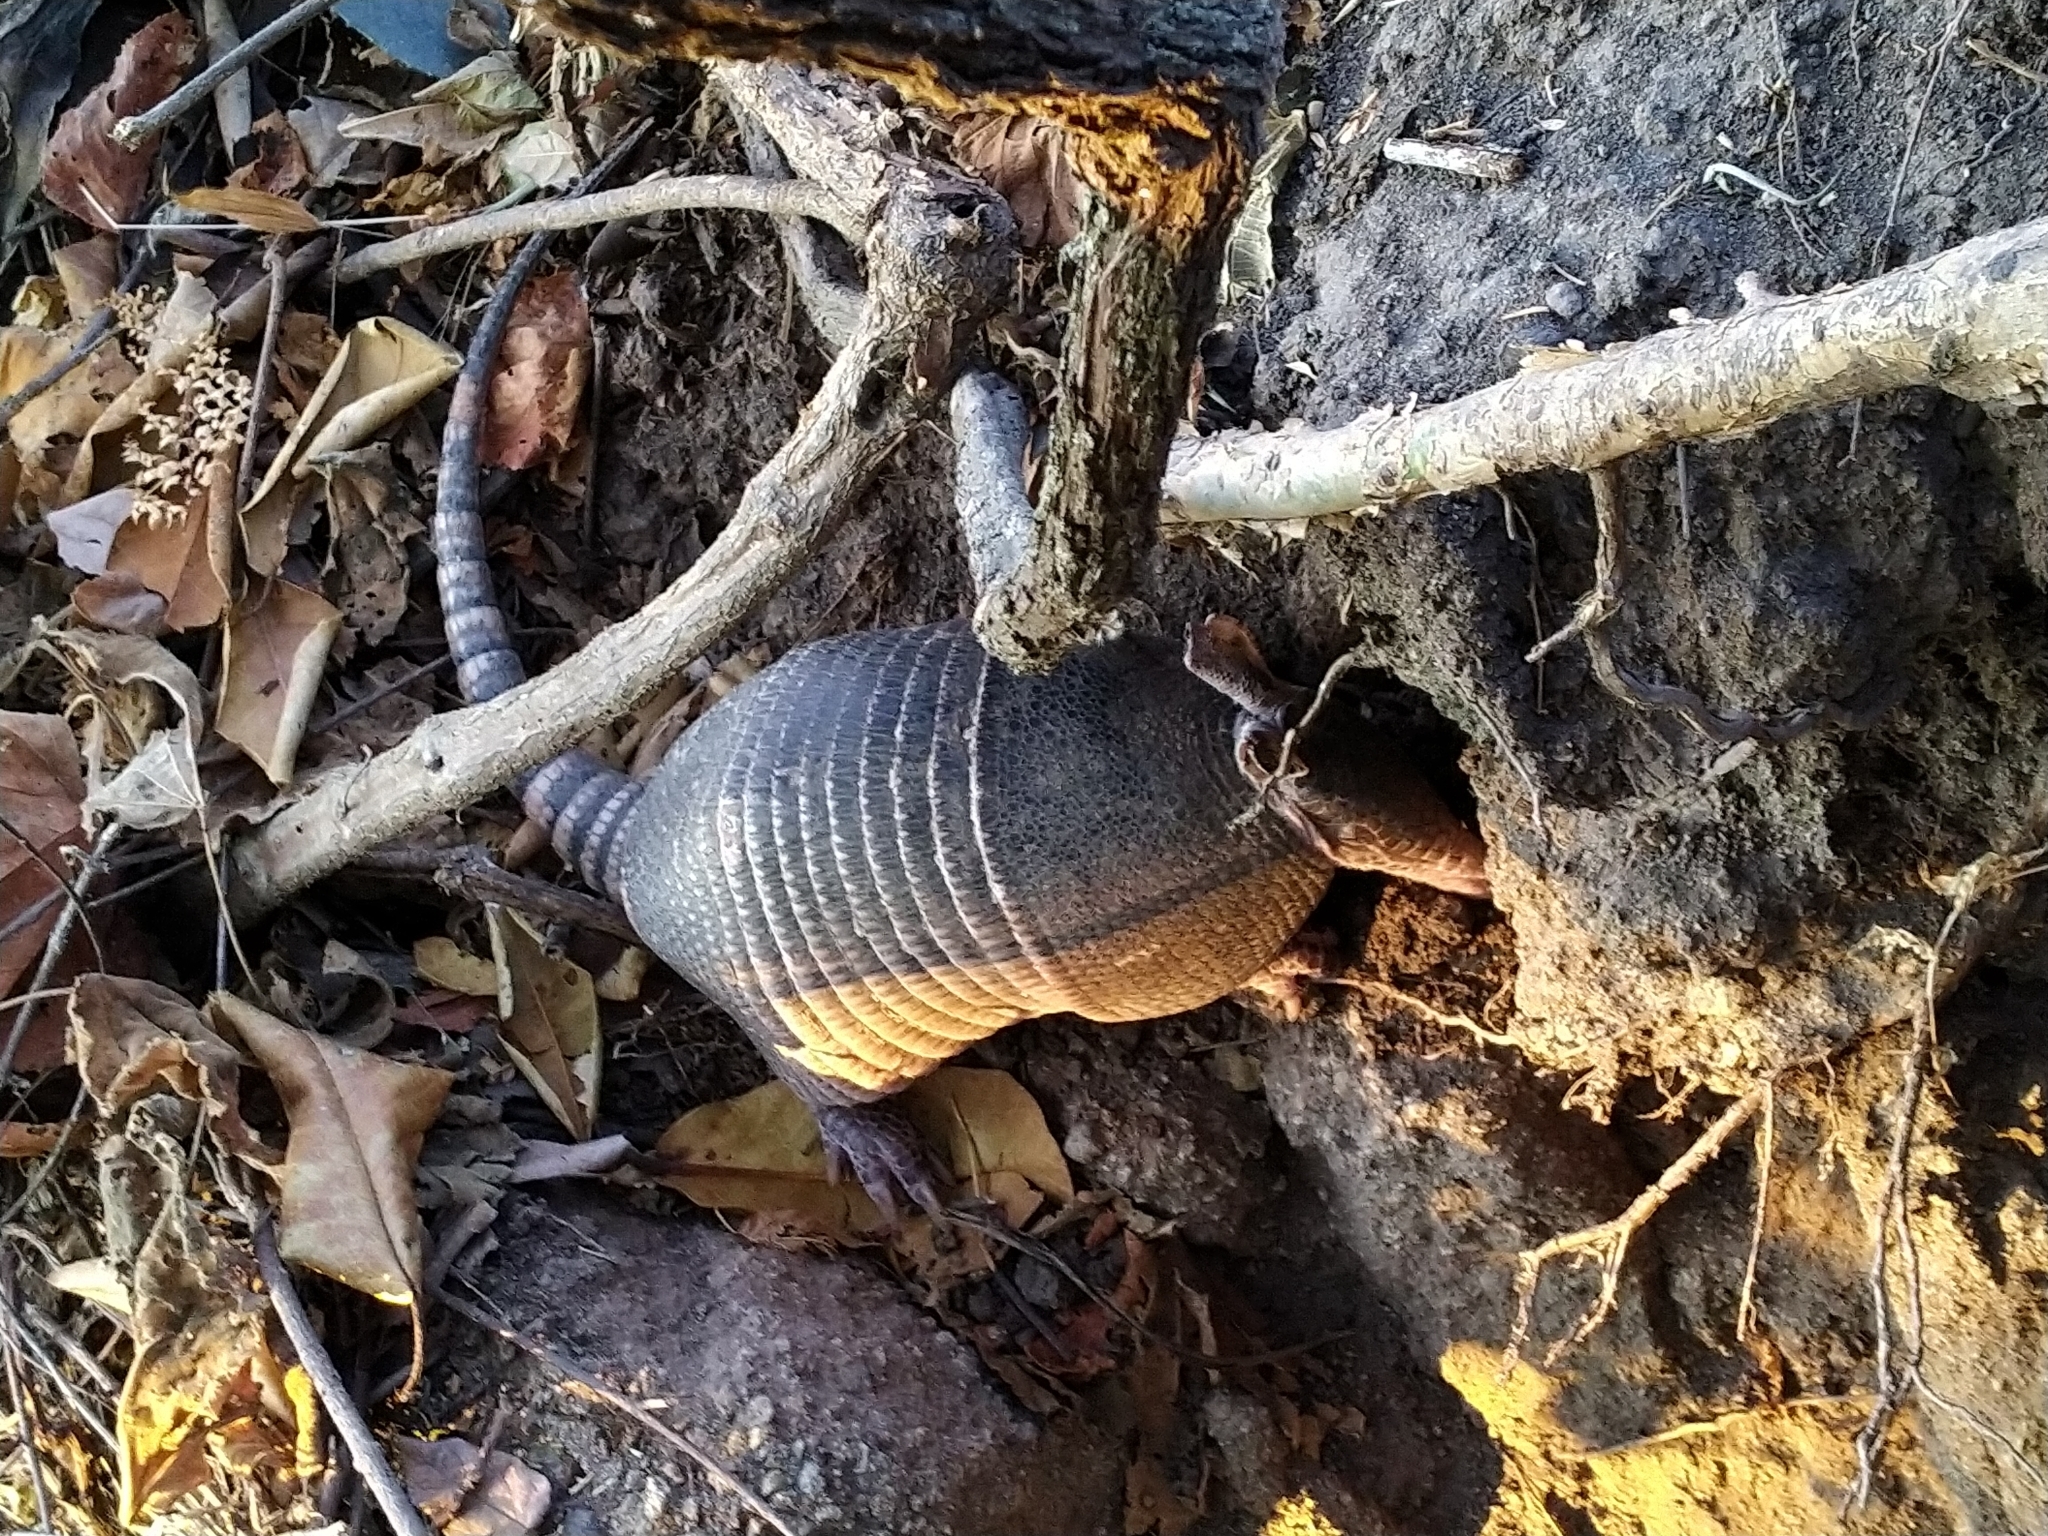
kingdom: Animalia
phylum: Chordata
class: Mammalia
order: Cingulata
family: Dasypodidae
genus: Dasypus
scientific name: Dasypus novemcinctus
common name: Nine-banded armadillo
